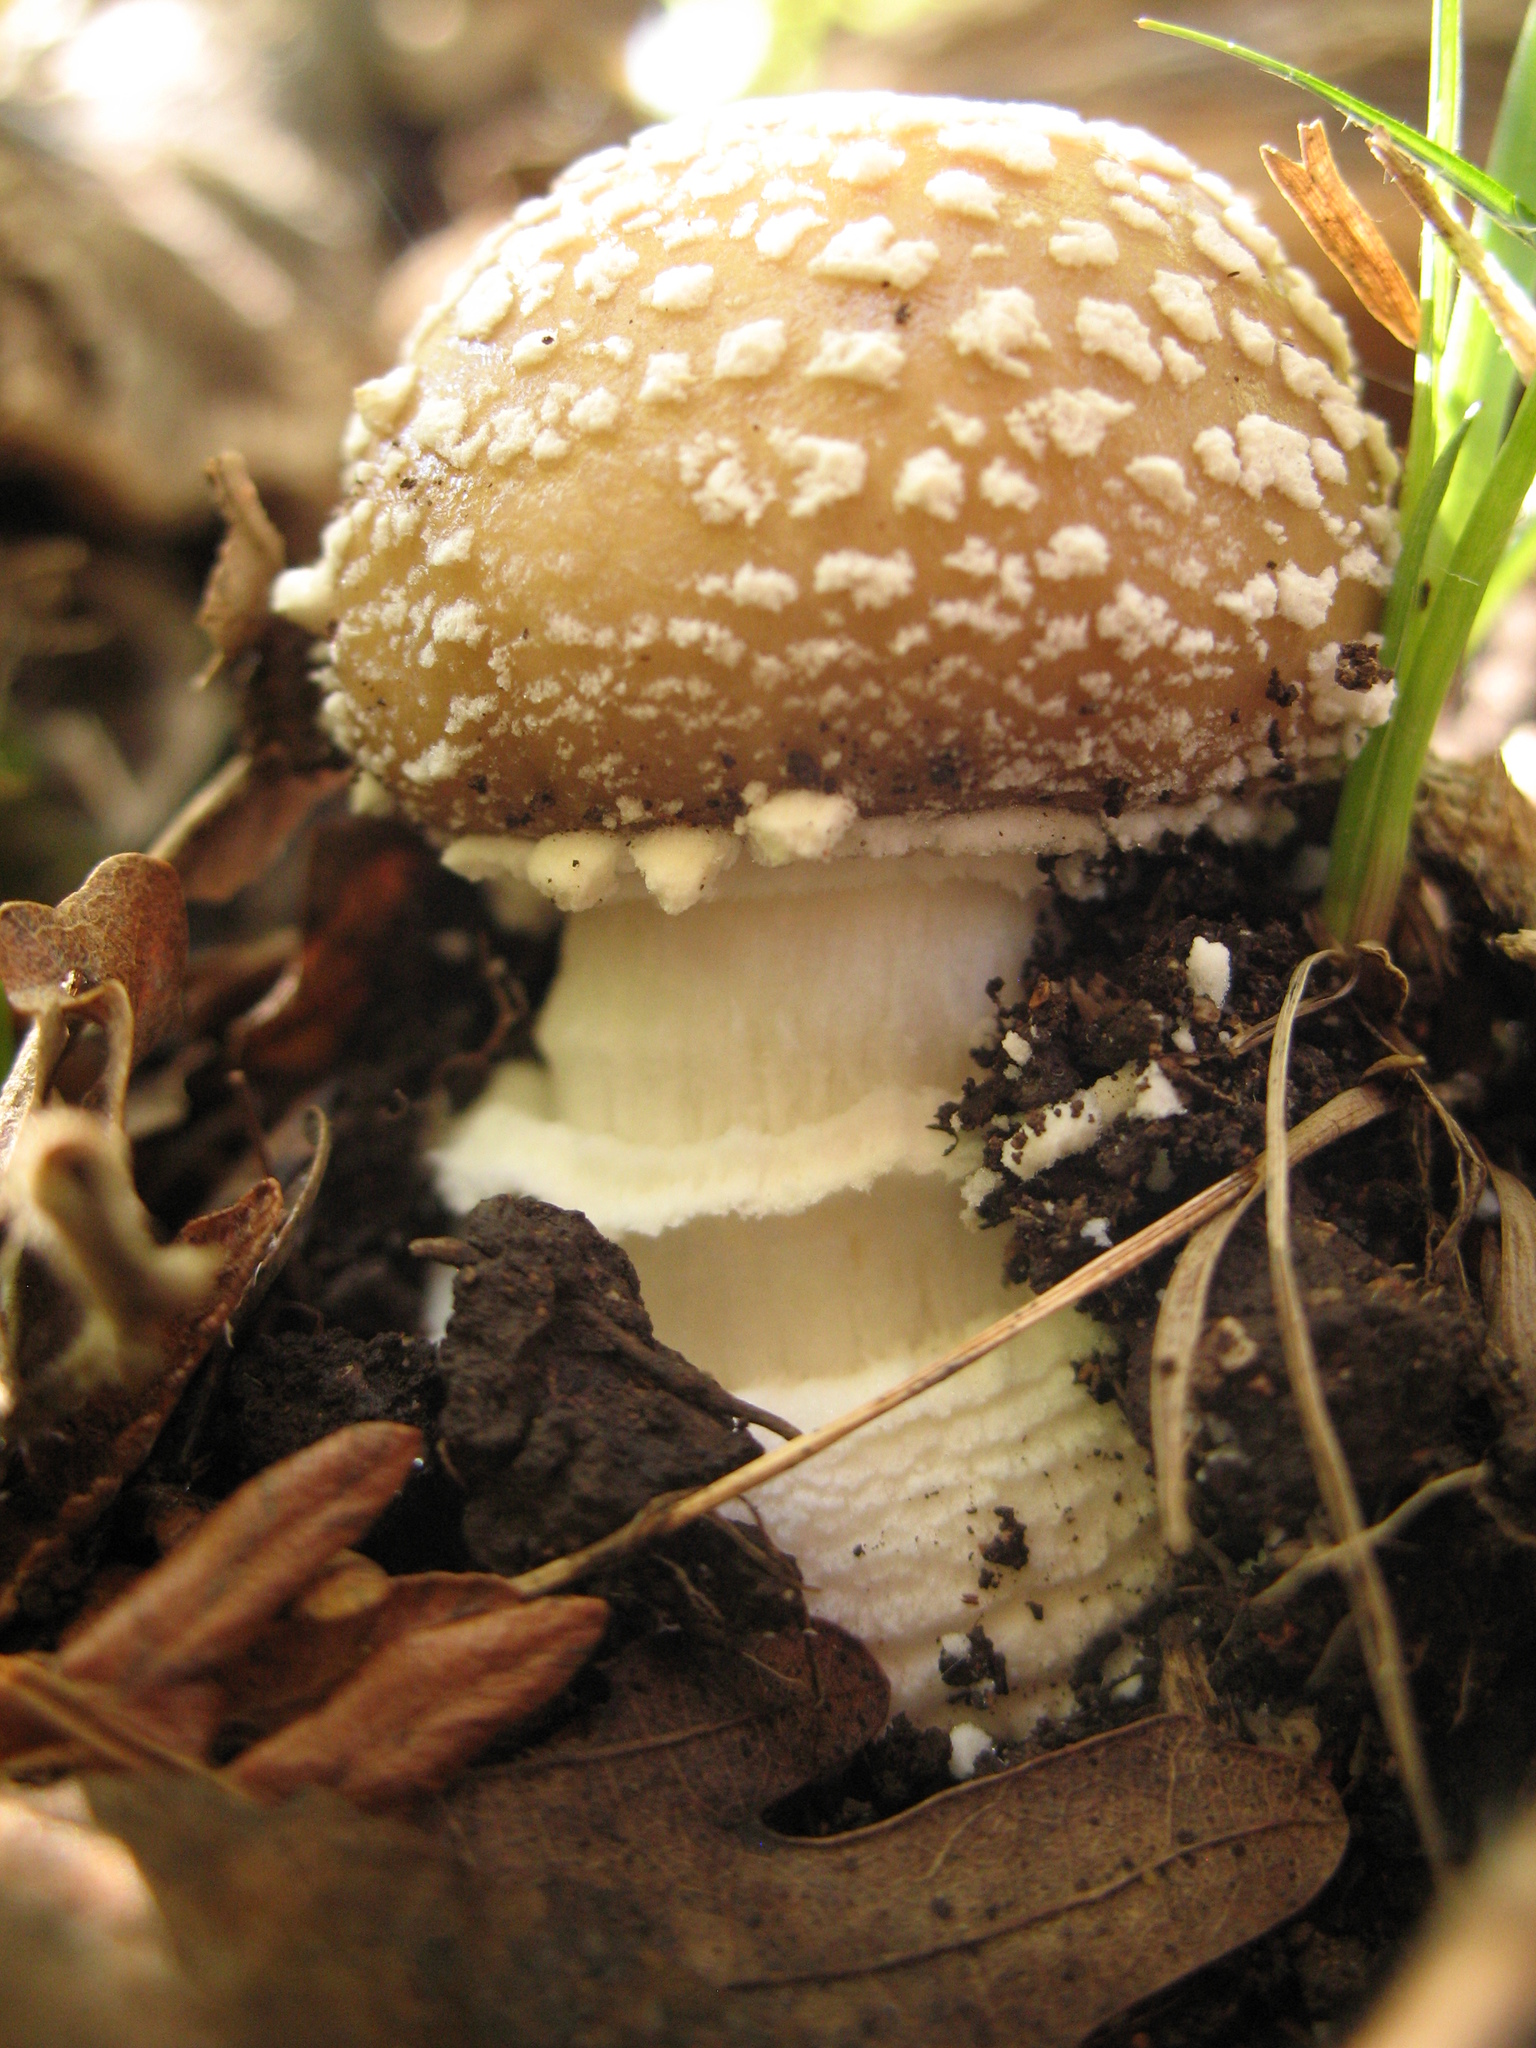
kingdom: Fungi
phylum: Basidiomycota
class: Agaricomycetes
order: Agaricales
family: Amanitaceae
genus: Amanita
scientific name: Amanita pantherina
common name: Panthercap
